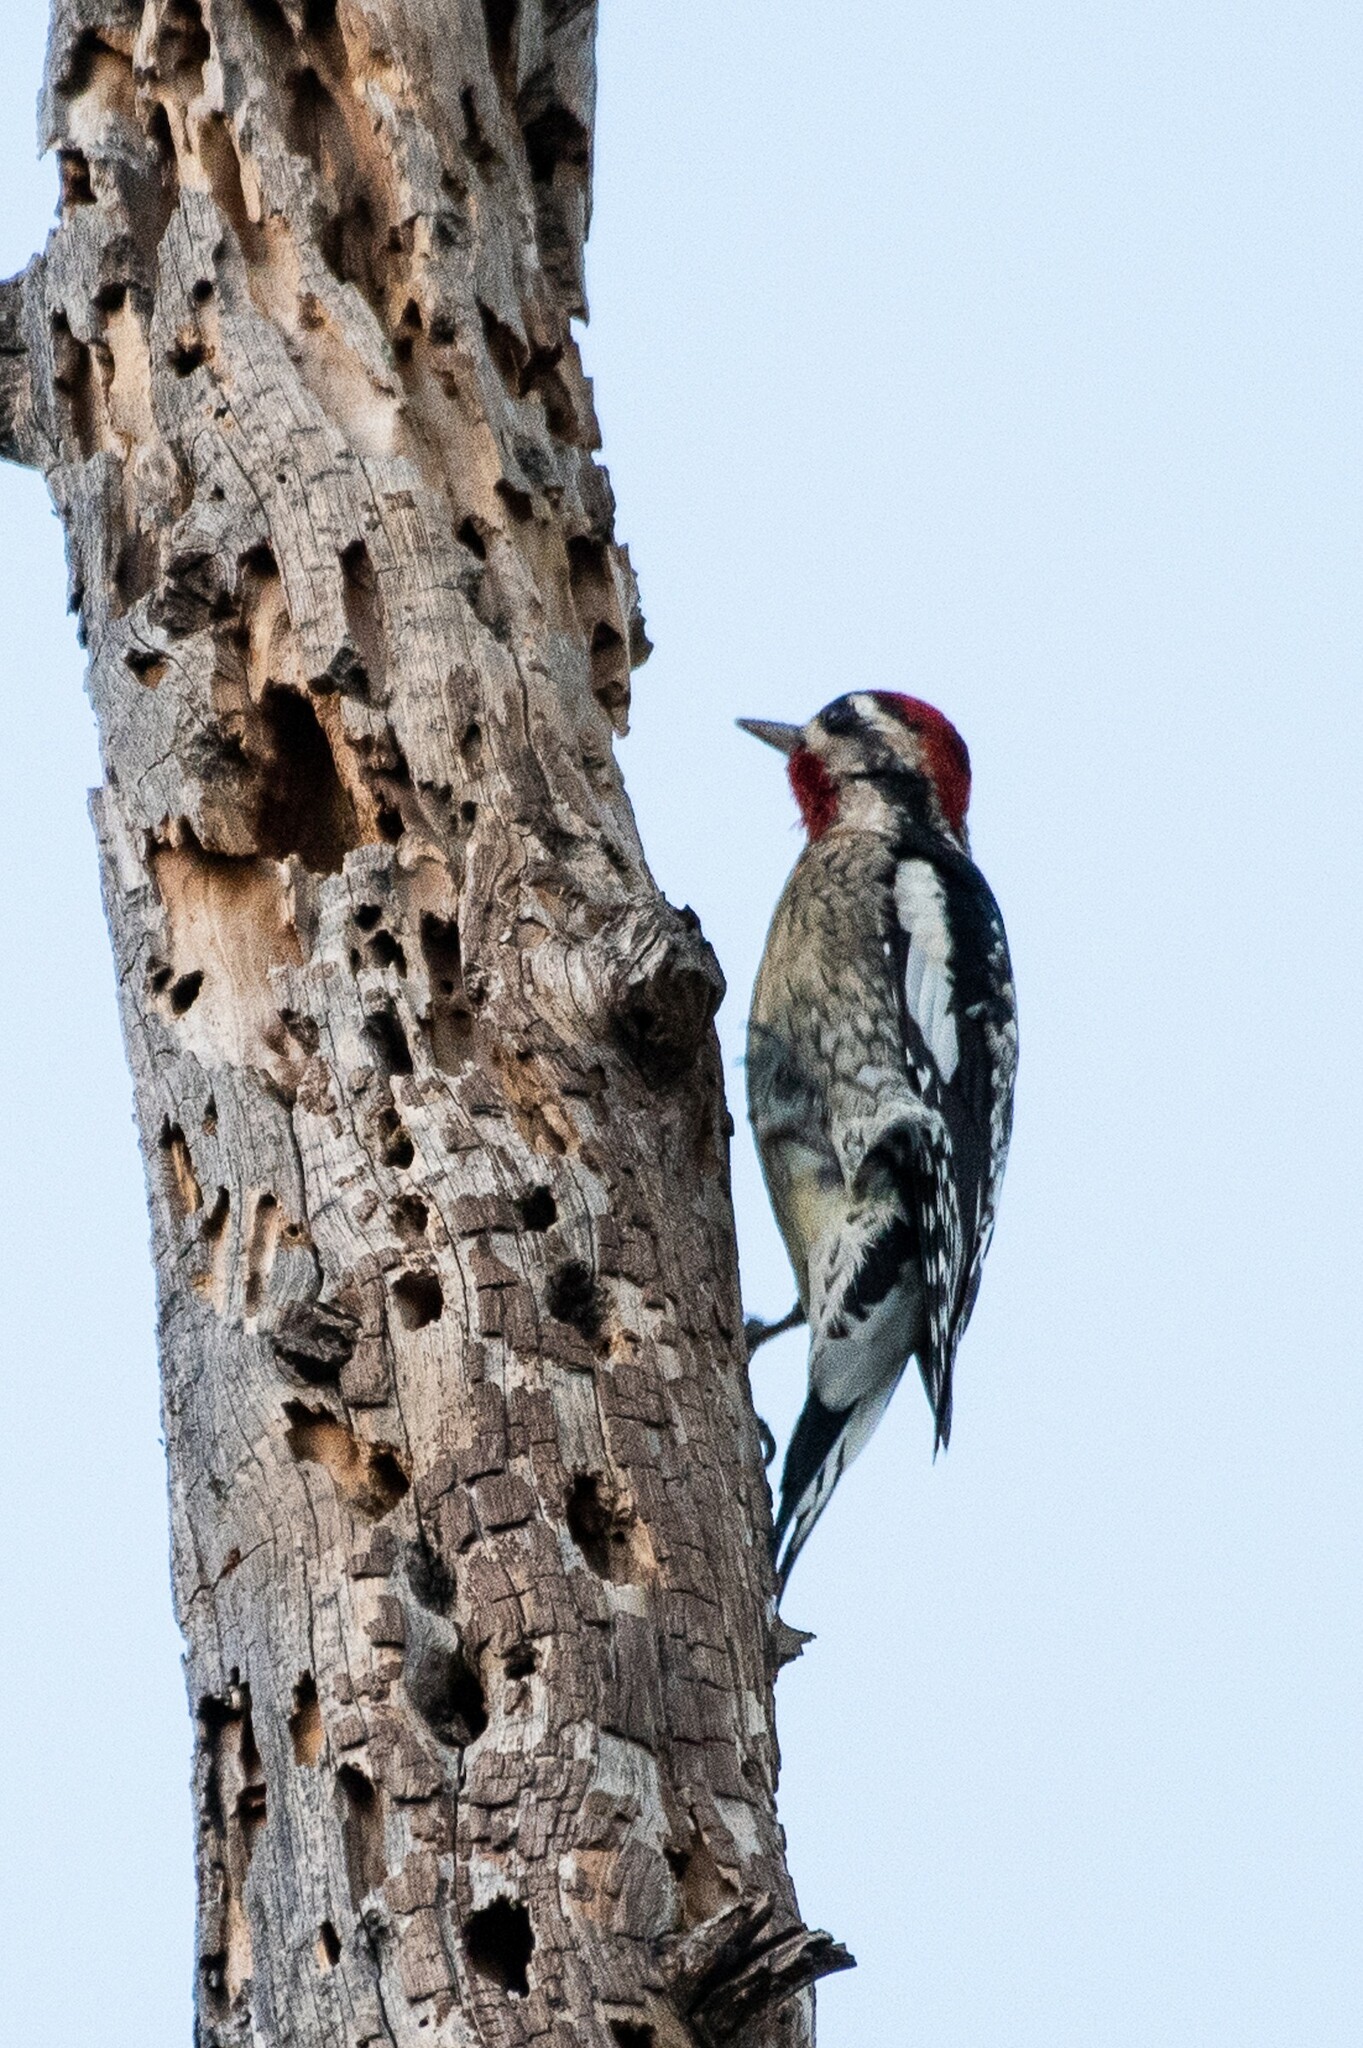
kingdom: Animalia
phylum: Chordata
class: Aves
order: Piciformes
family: Picidae
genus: Sphyrapicus
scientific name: Sphyrapicus nuchalis
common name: Red-naped sapsucker
